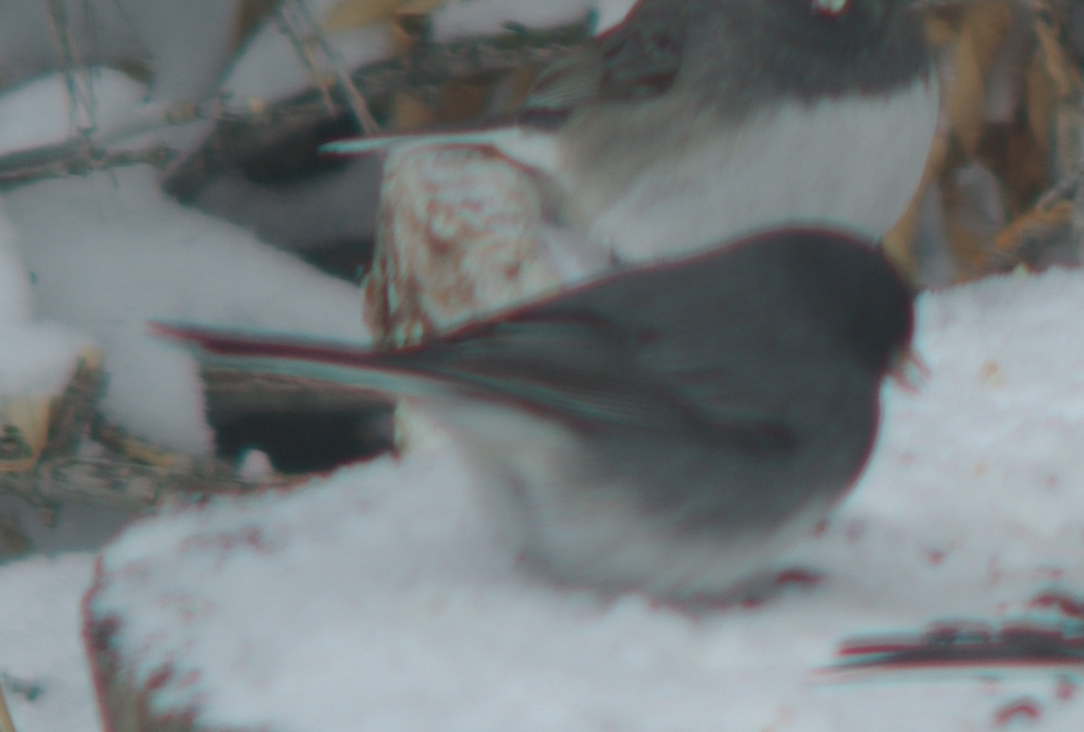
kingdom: Animalia
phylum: Chordata
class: Aves
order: Passeriformes
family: Passerellidae
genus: Junco
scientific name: Junco hyemalis
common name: Dark-eyed junco
